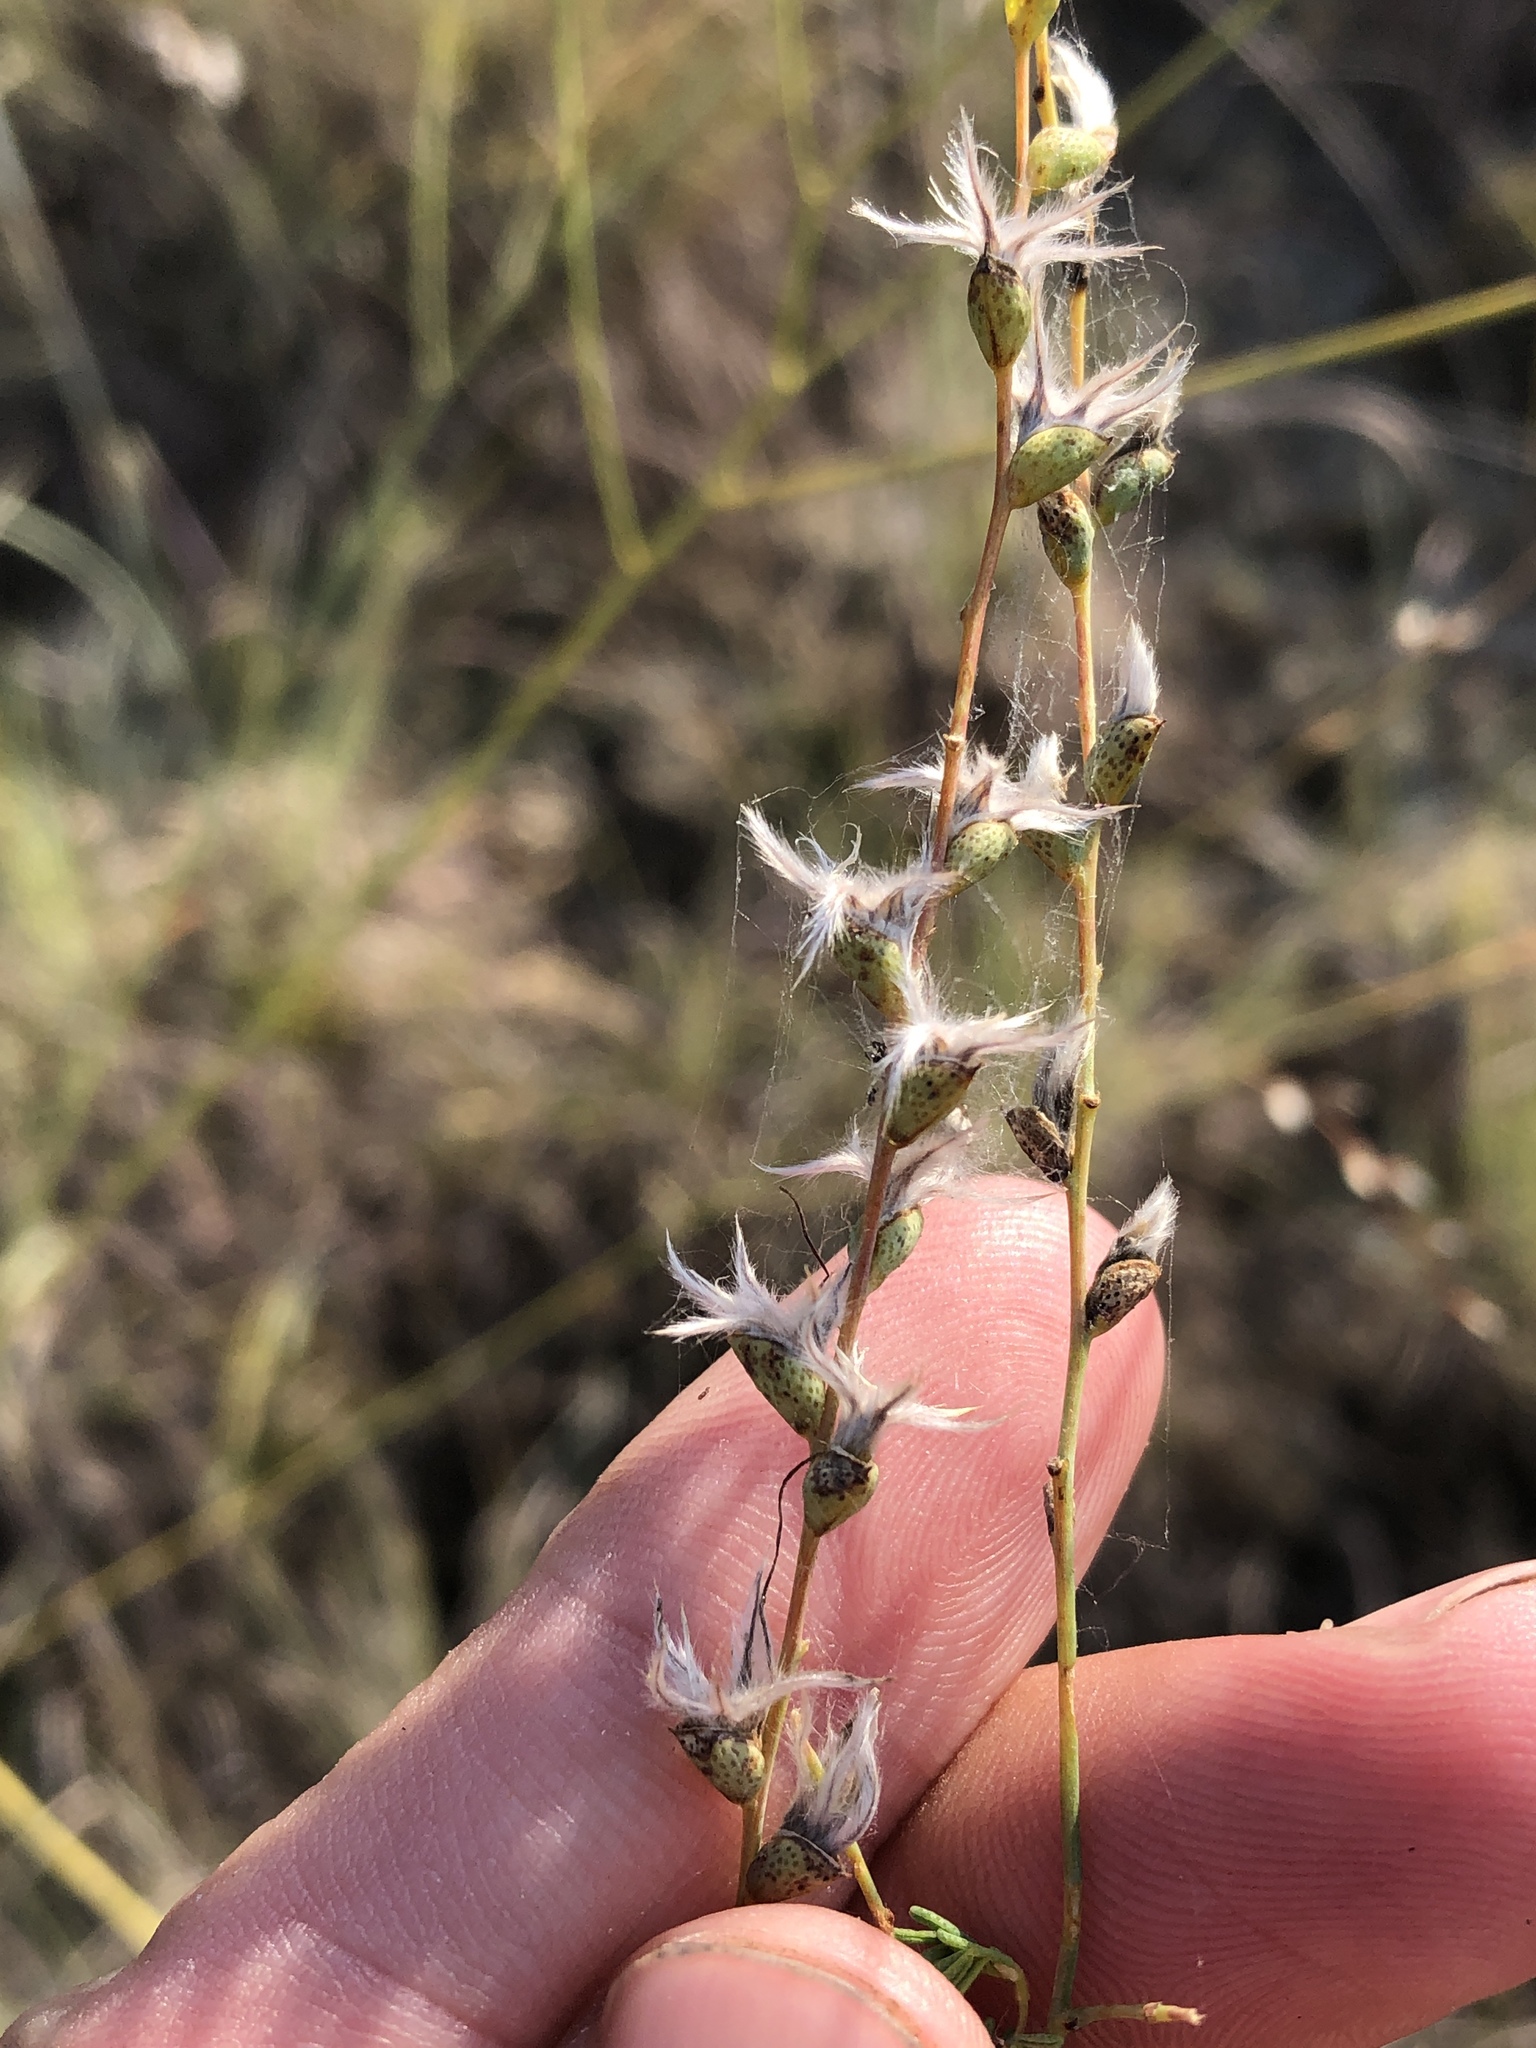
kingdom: Plantae
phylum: Tracheophyta
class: Magnoliopsida
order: Fabales
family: Fabaceae
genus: Dalea
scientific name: Dalea enneandra
